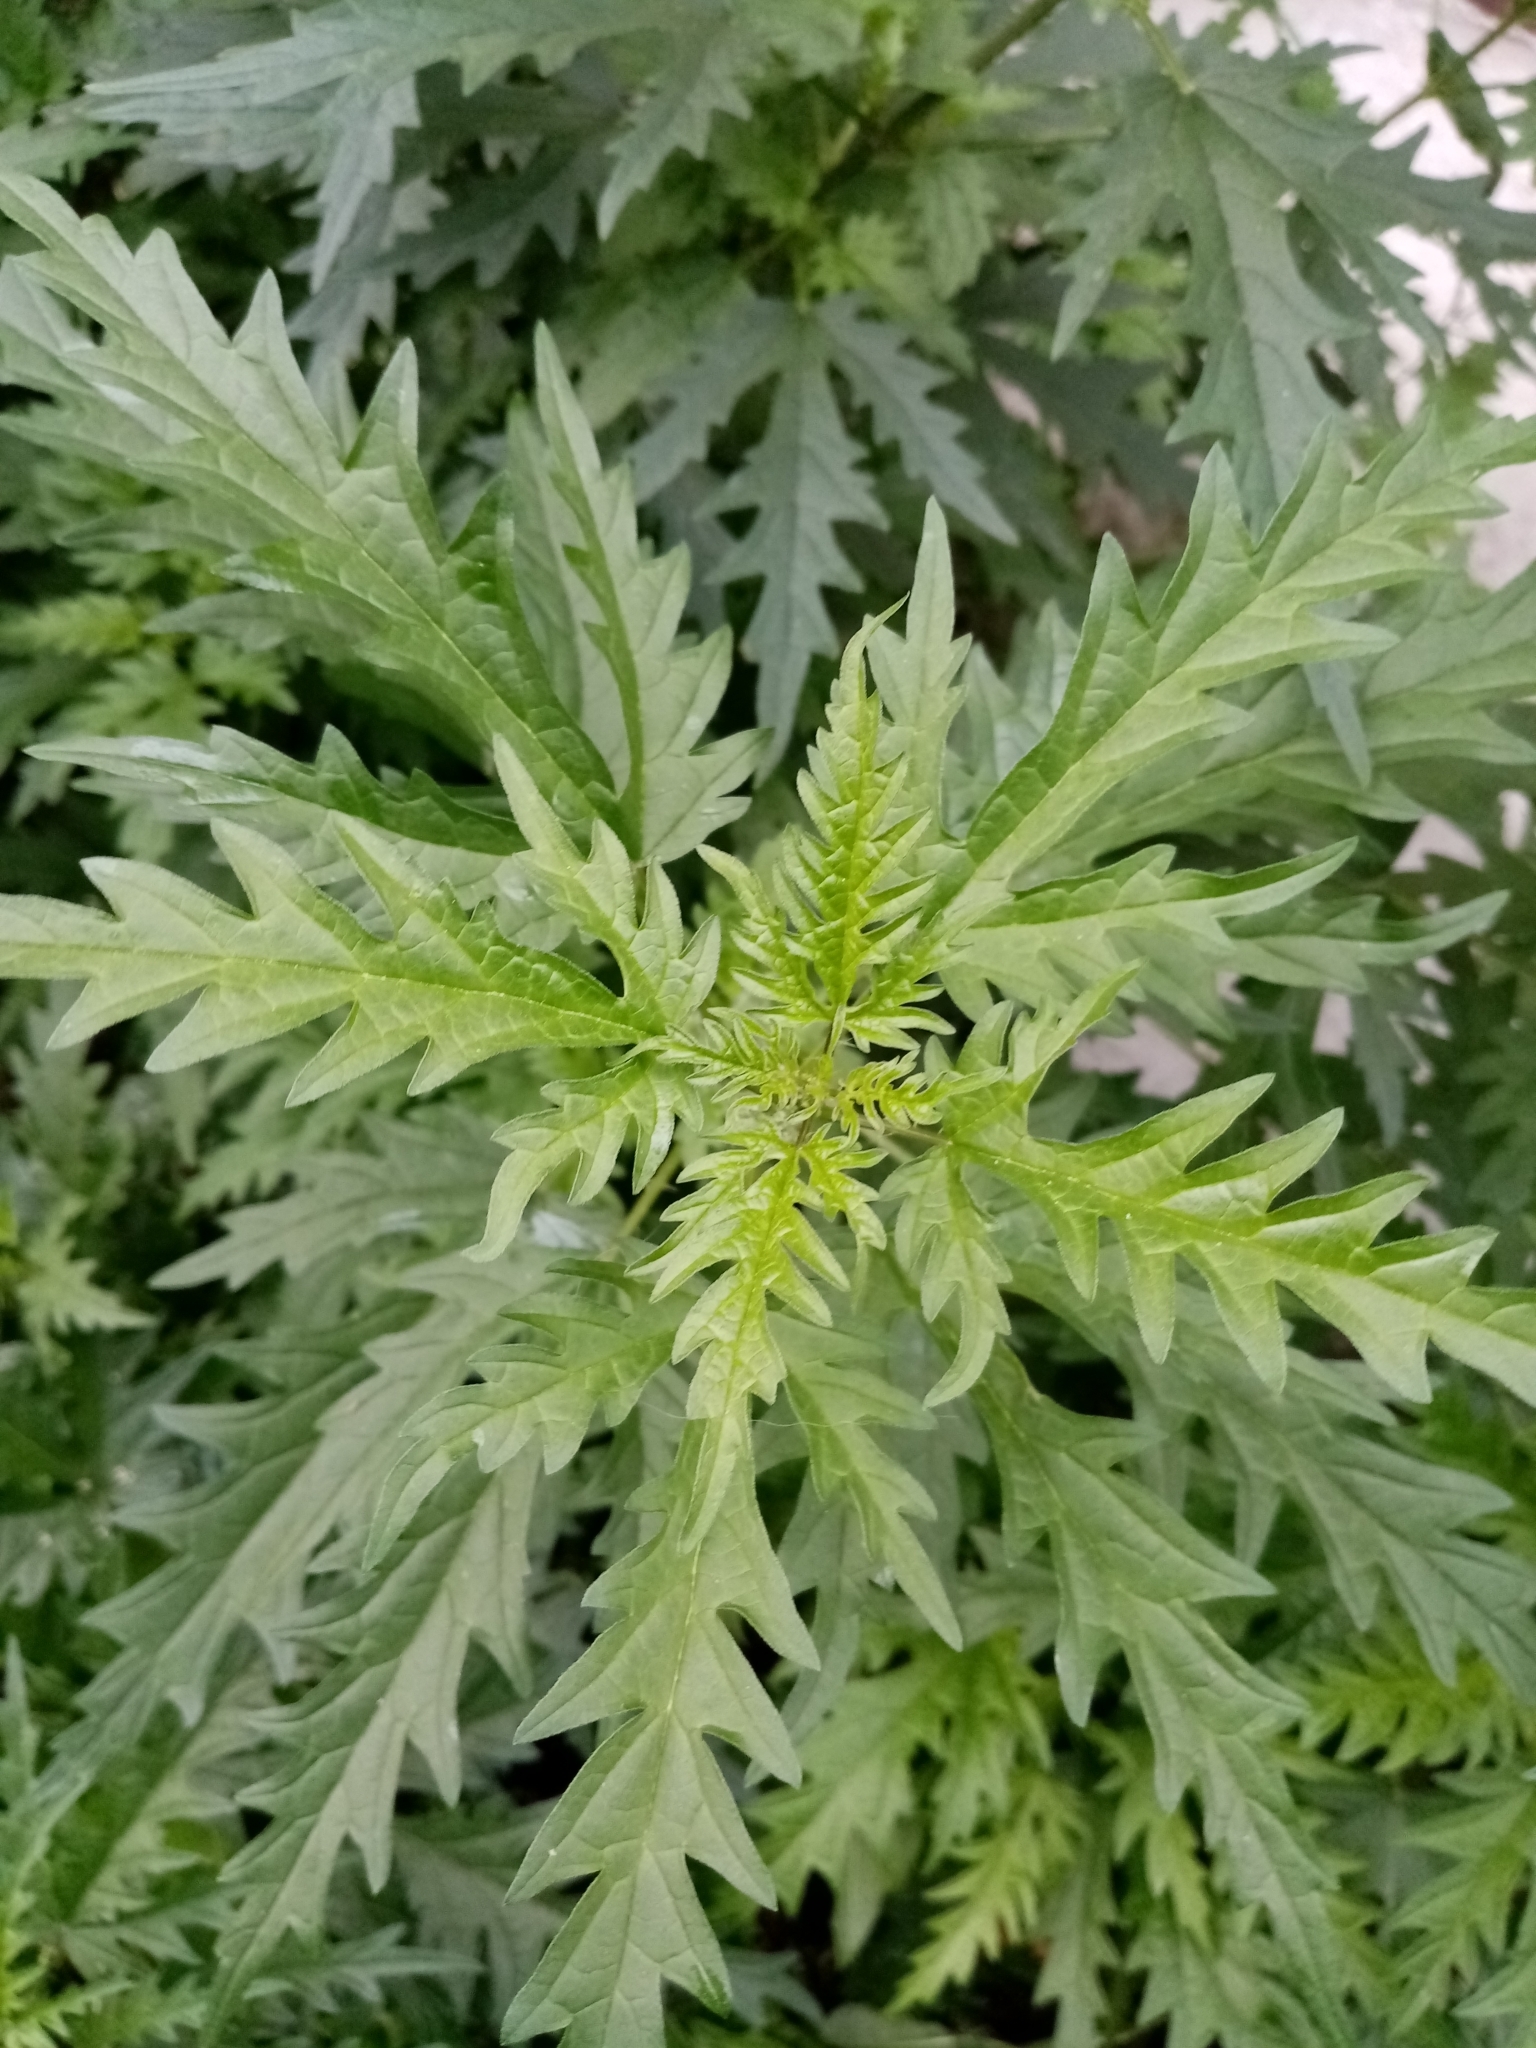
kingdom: Plantae
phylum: Tracheophyta
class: Magnoliopsida
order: Rosales
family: Urticaceae
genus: Urtica
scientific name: Urtica cannabina
